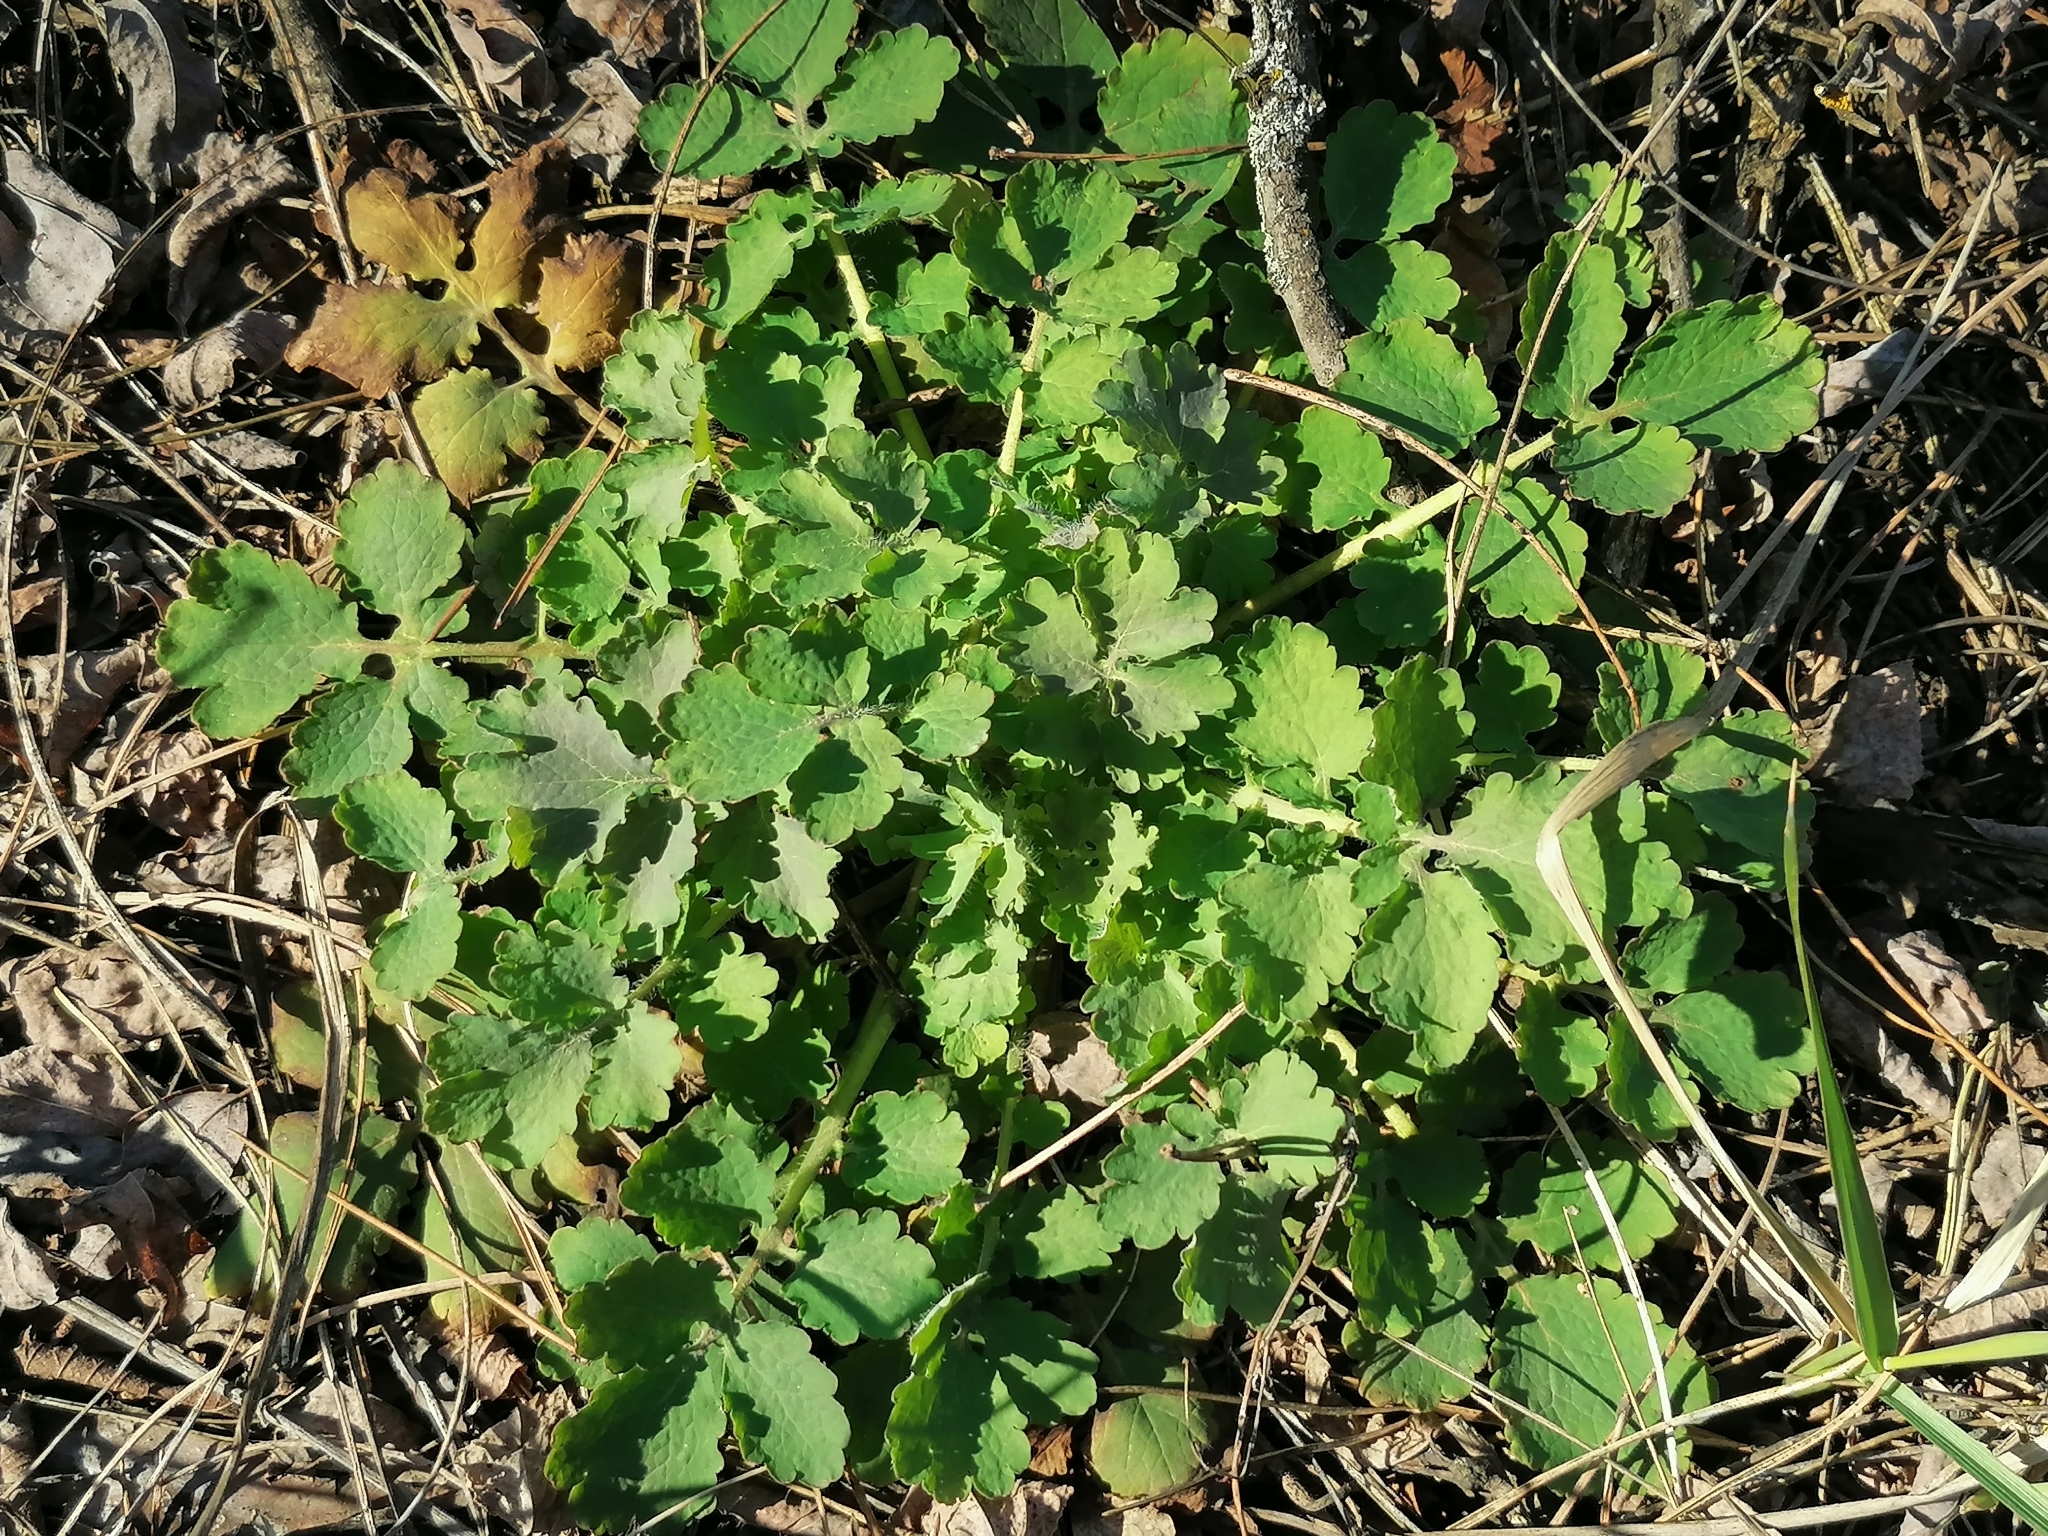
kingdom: Plantae
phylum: Tracheophyta
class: Magnoliopsida
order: Ranunculales
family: Papaveraceae
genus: Chelidonium
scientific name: Chelidonium majus
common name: Greater celandine
